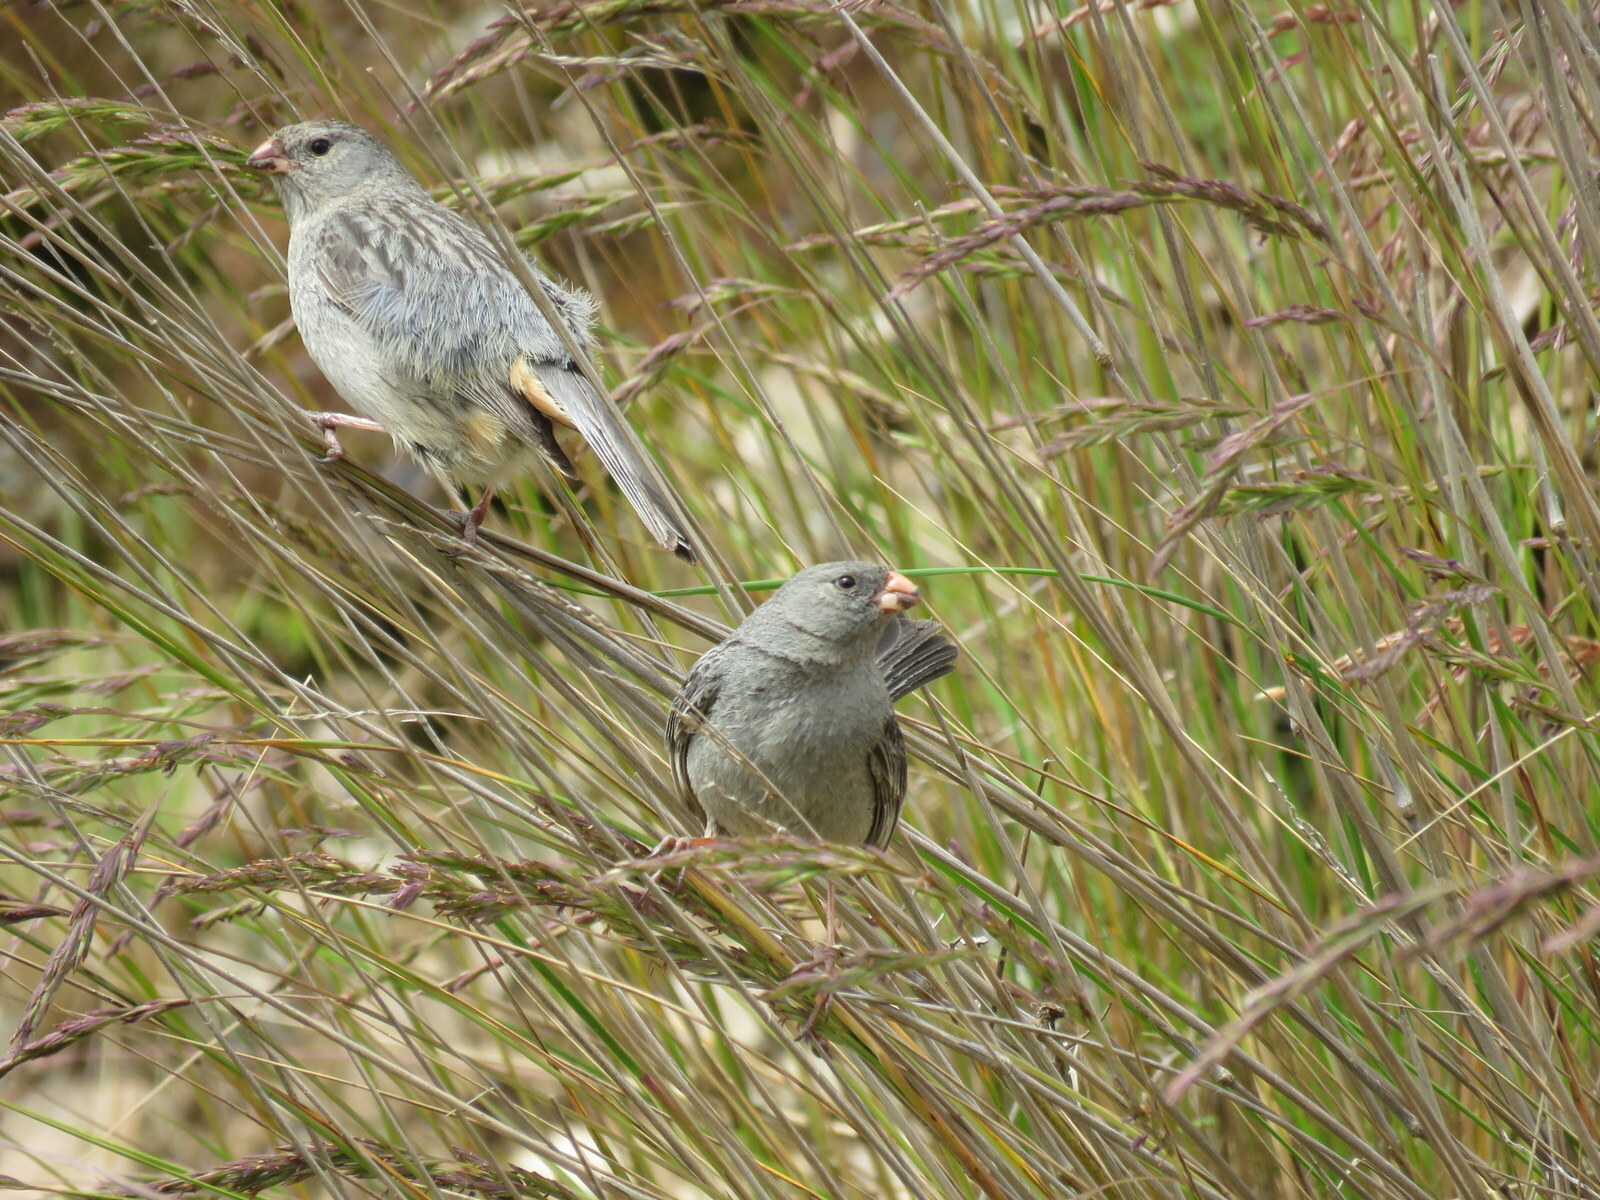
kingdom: Animalia
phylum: Chordata
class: Aves
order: Passeriformes
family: Thraupidae
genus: Catamenia
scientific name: Catamenia inornata
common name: Plain-colored seedeater
